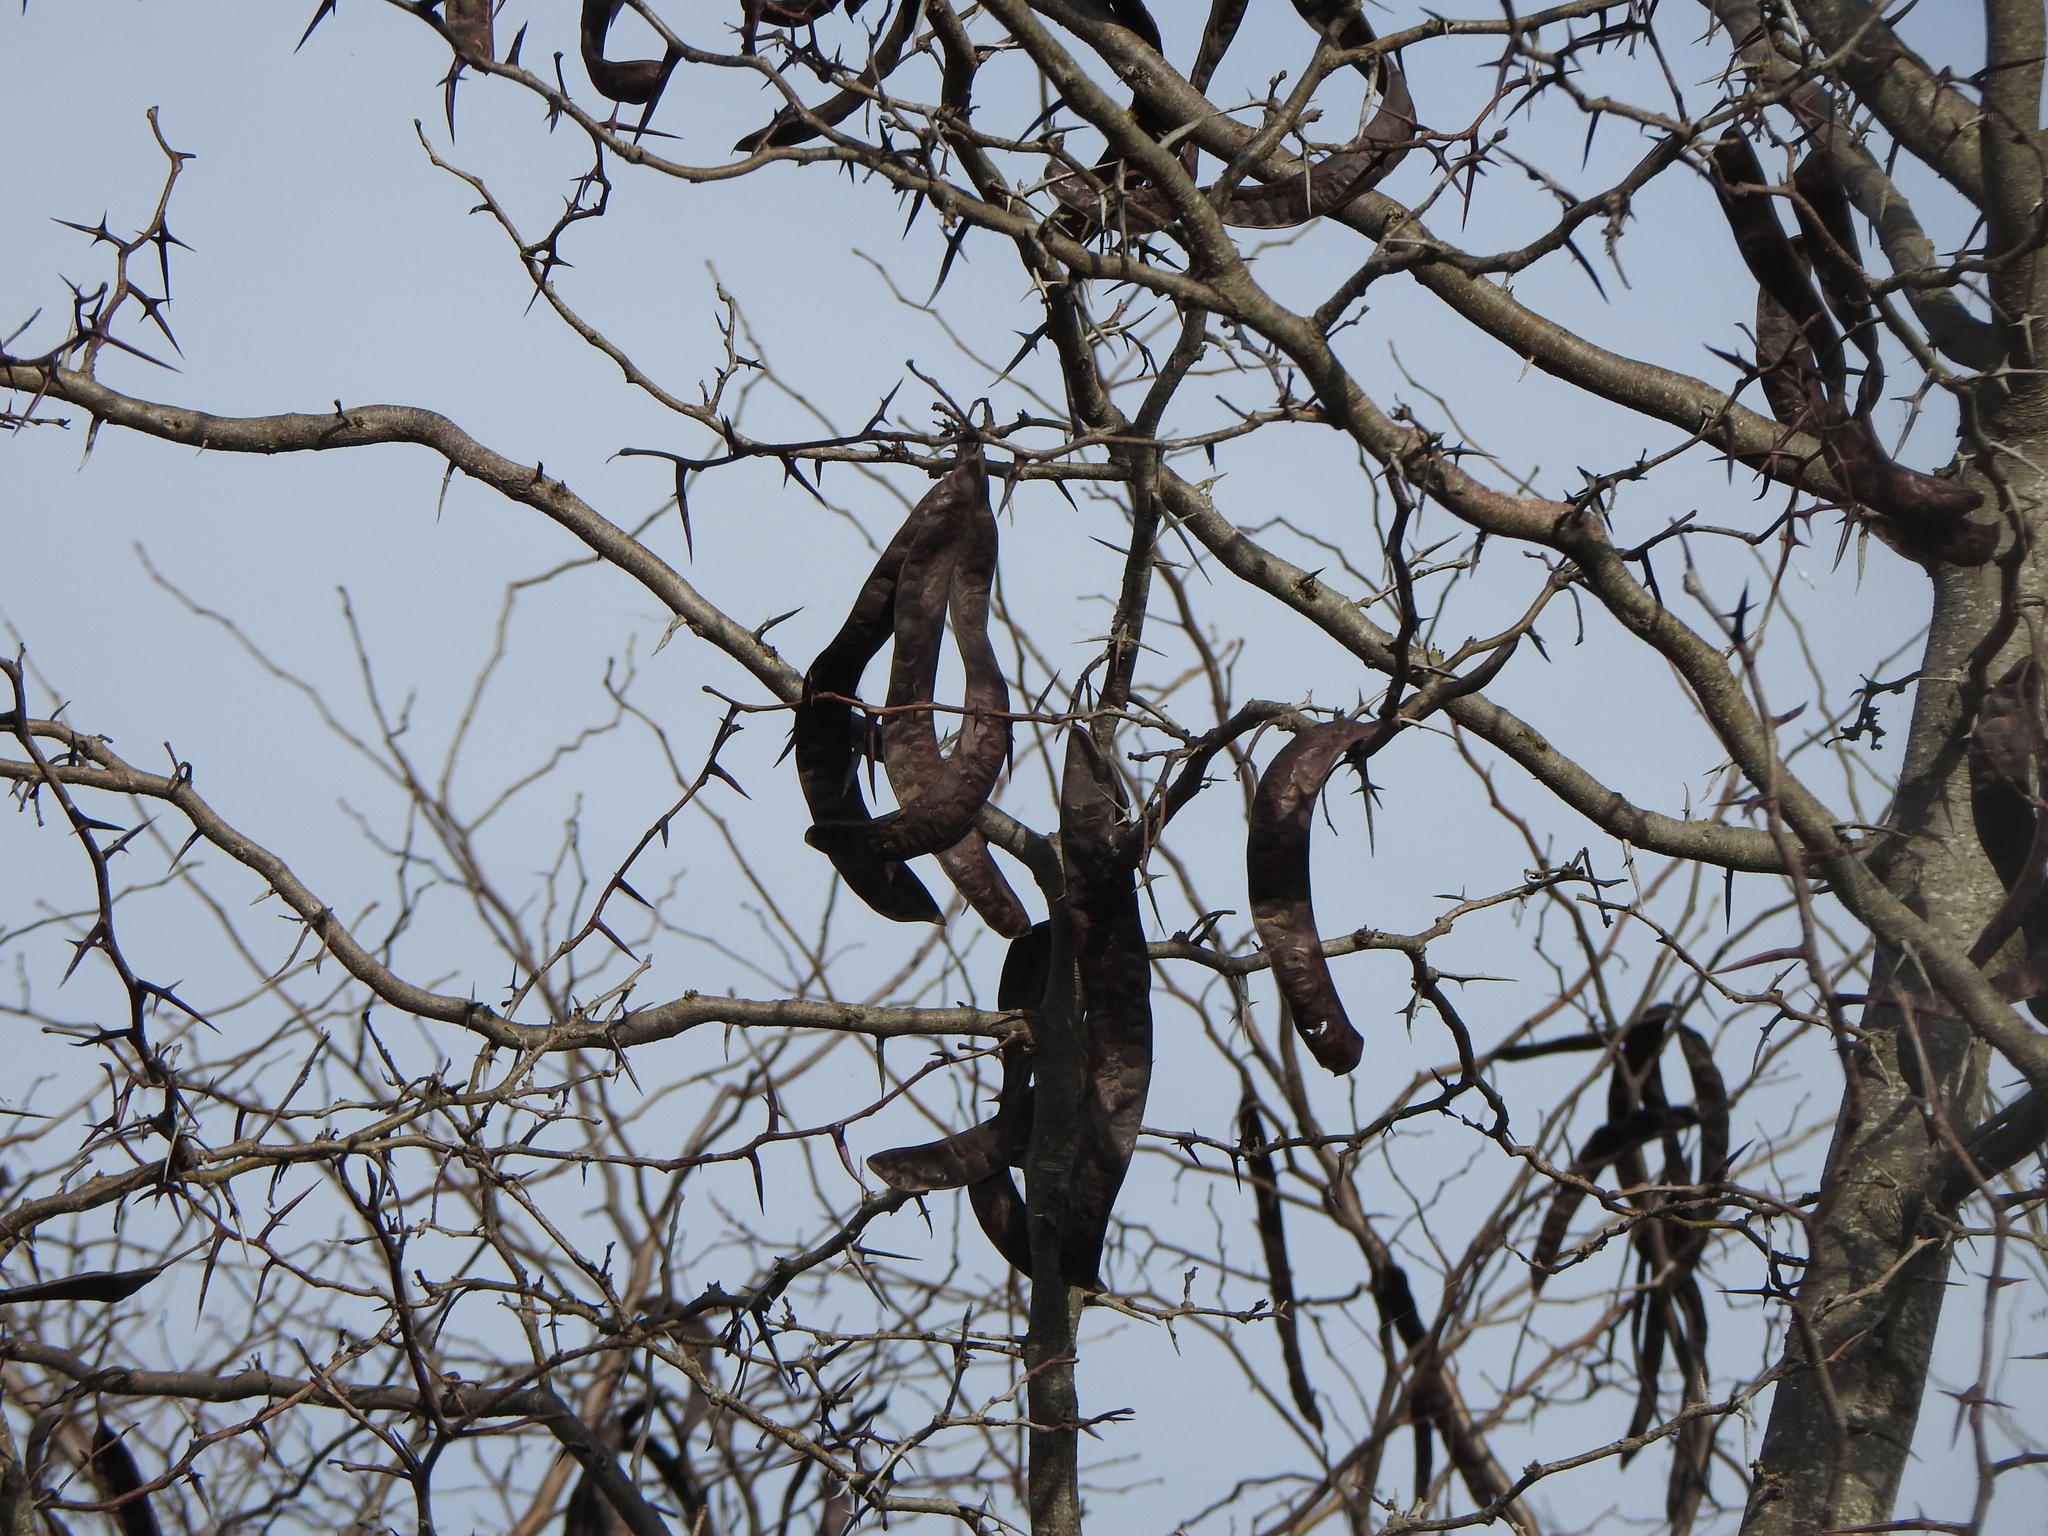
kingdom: Plantae
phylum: Tracheophyta
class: Magnoliopsida
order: Fabales
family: Fabaceae
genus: Gleditsia
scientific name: Gleditsia triacanthos
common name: Common honeylocust
